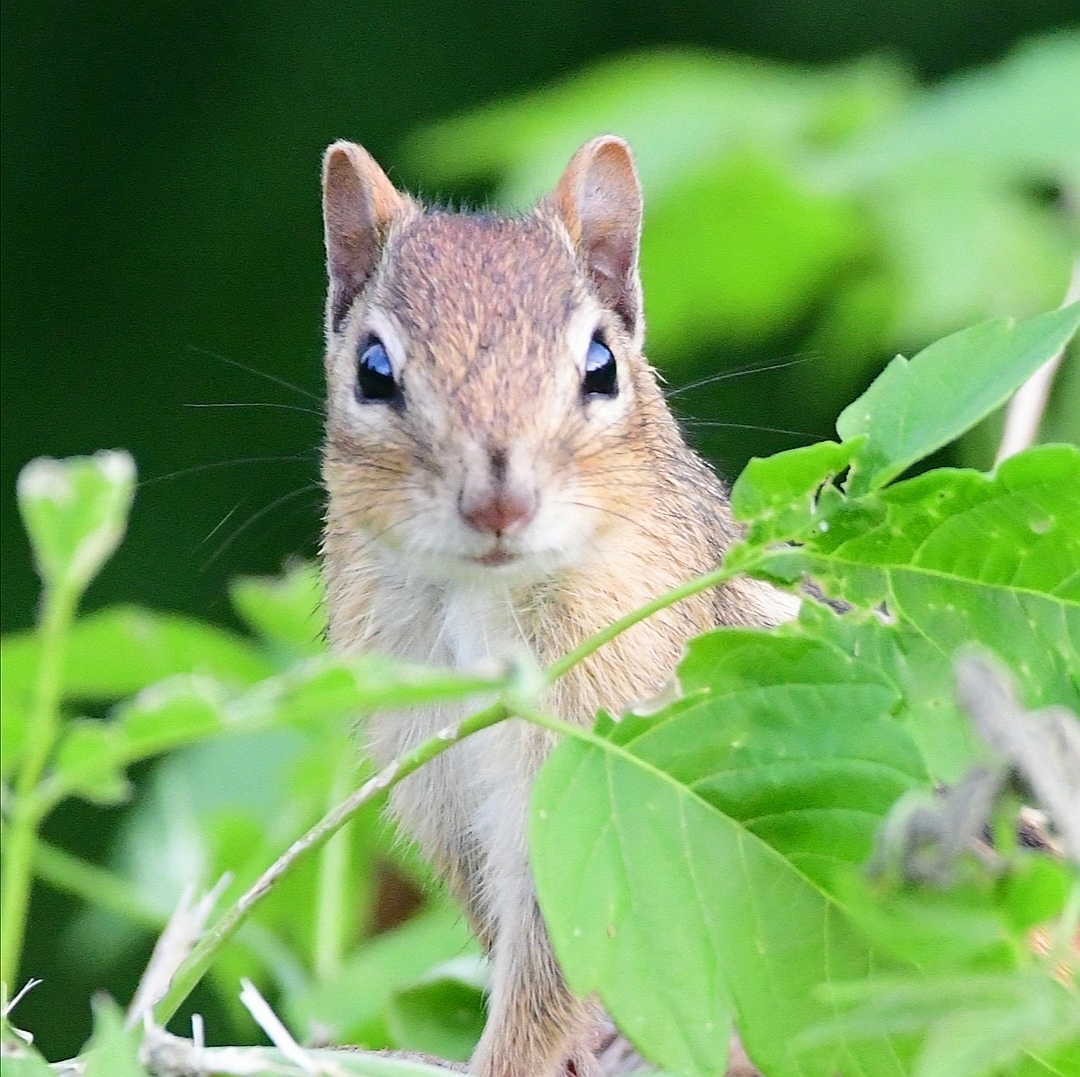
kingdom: Animalia
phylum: Chordata
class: Mammalia
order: Rodentia
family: Sciuridae
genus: Tamias
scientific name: Tamias striatus
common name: Eastern chipmunk
